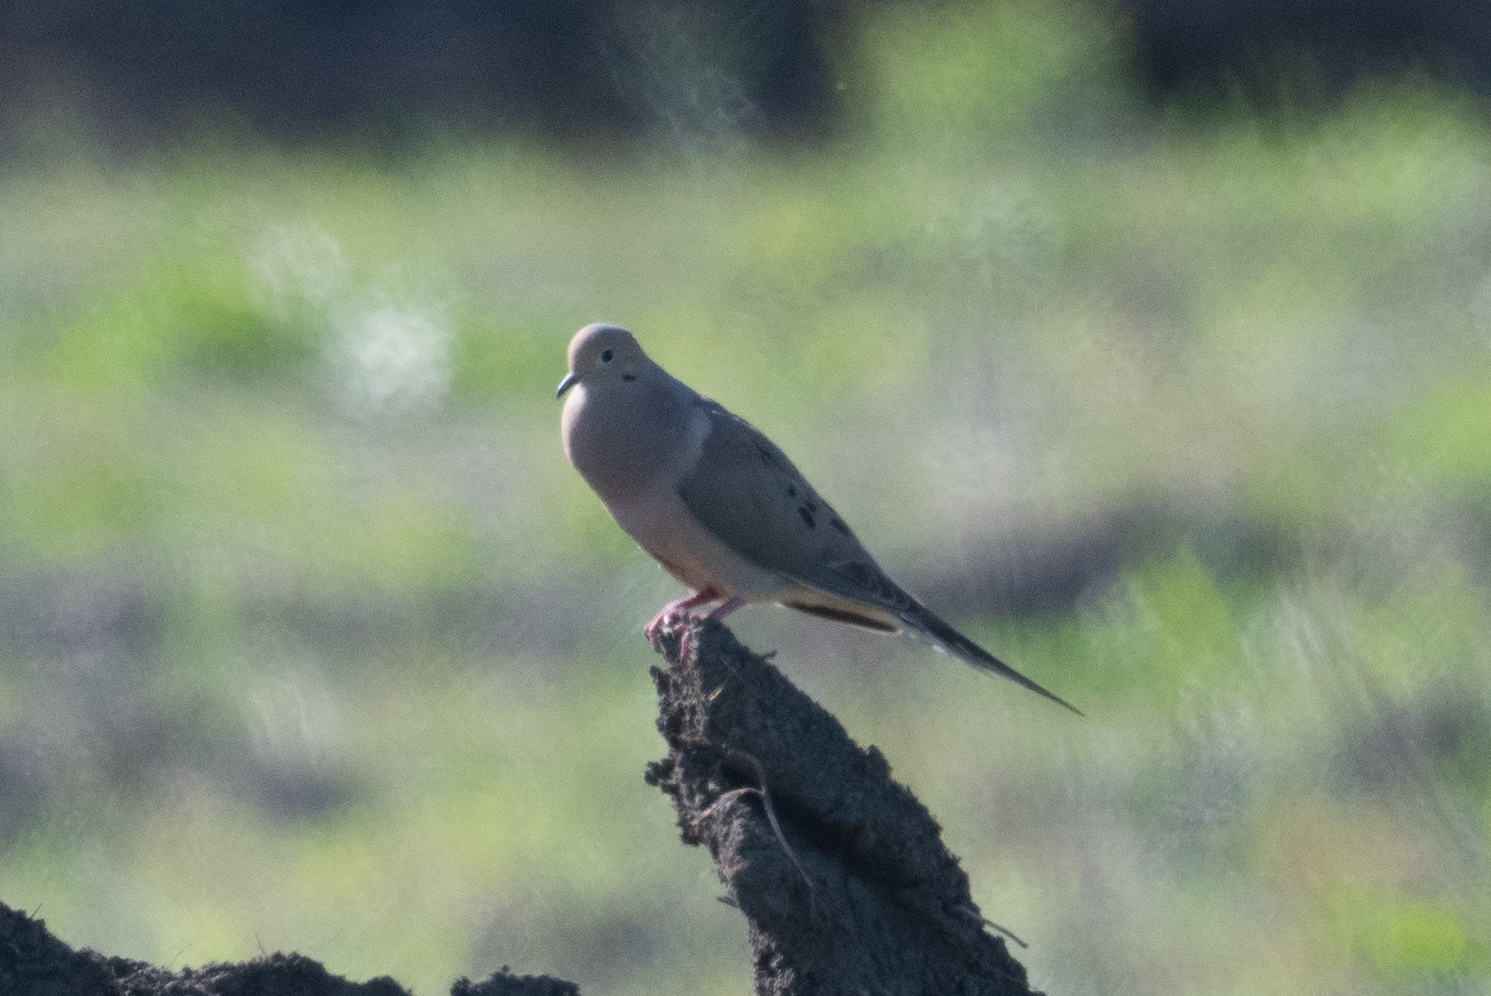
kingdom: Animalia
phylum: Chordata
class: Aves
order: Columbiformes
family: Columbidae
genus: Zenaida
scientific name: Zenaida macroura
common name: Mourning dove
